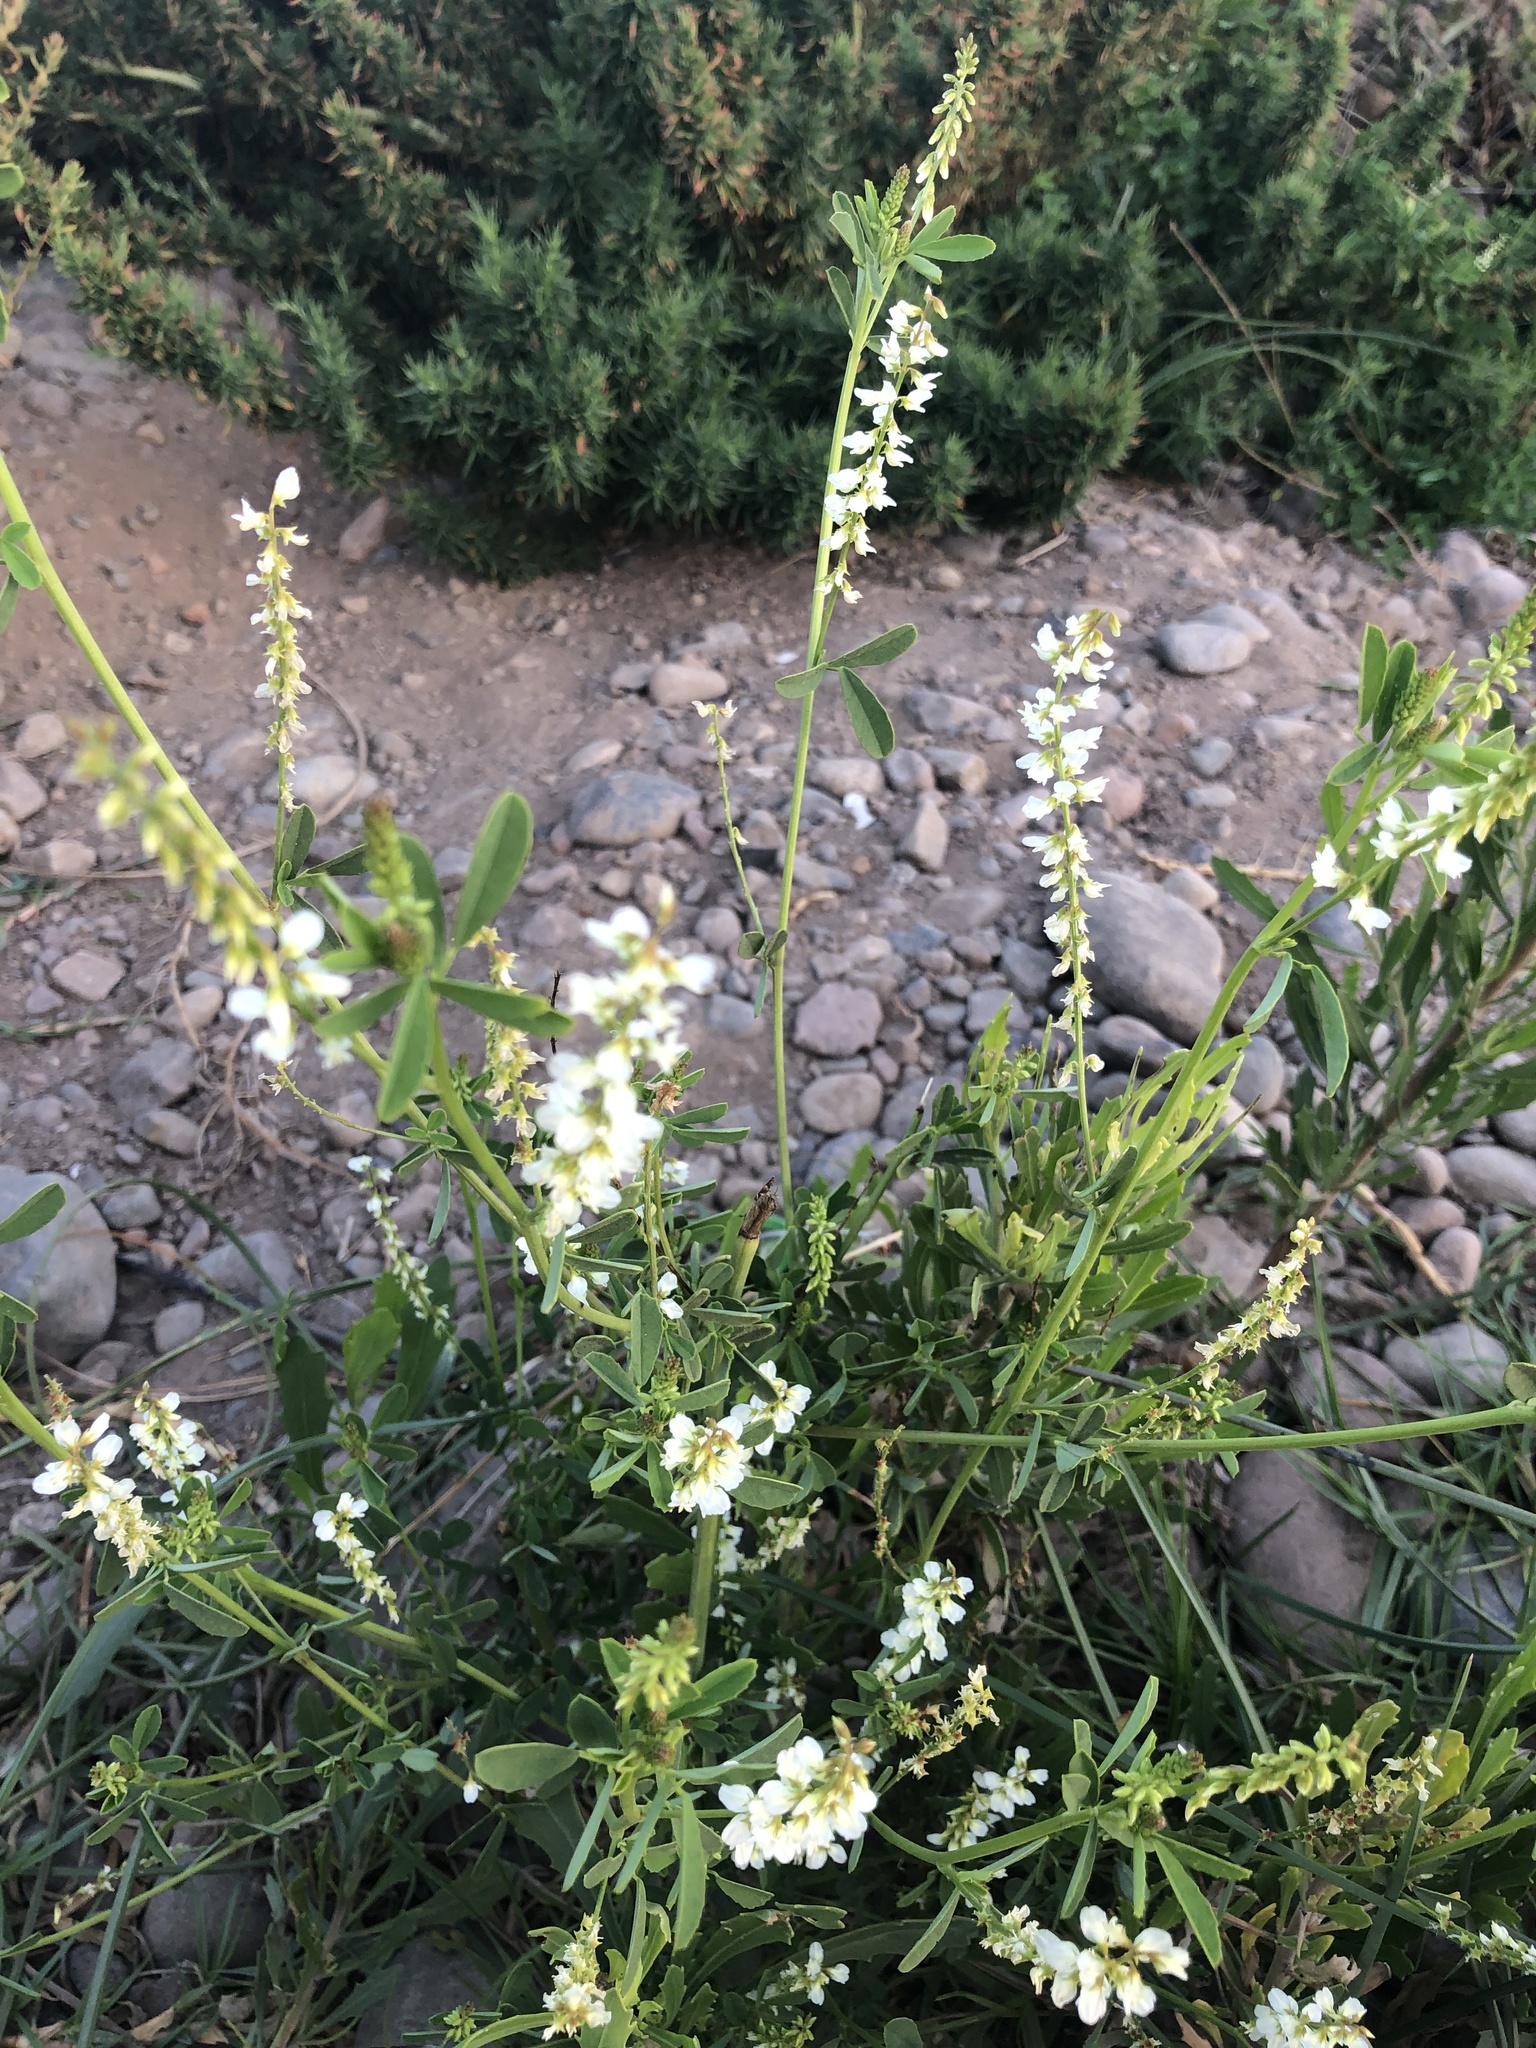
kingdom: Plantae
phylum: Tracheophyta
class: Magnoliopsida
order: Fabales
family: Fabaceae
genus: Melilotus
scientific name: Melilotus albus
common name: White melilot
